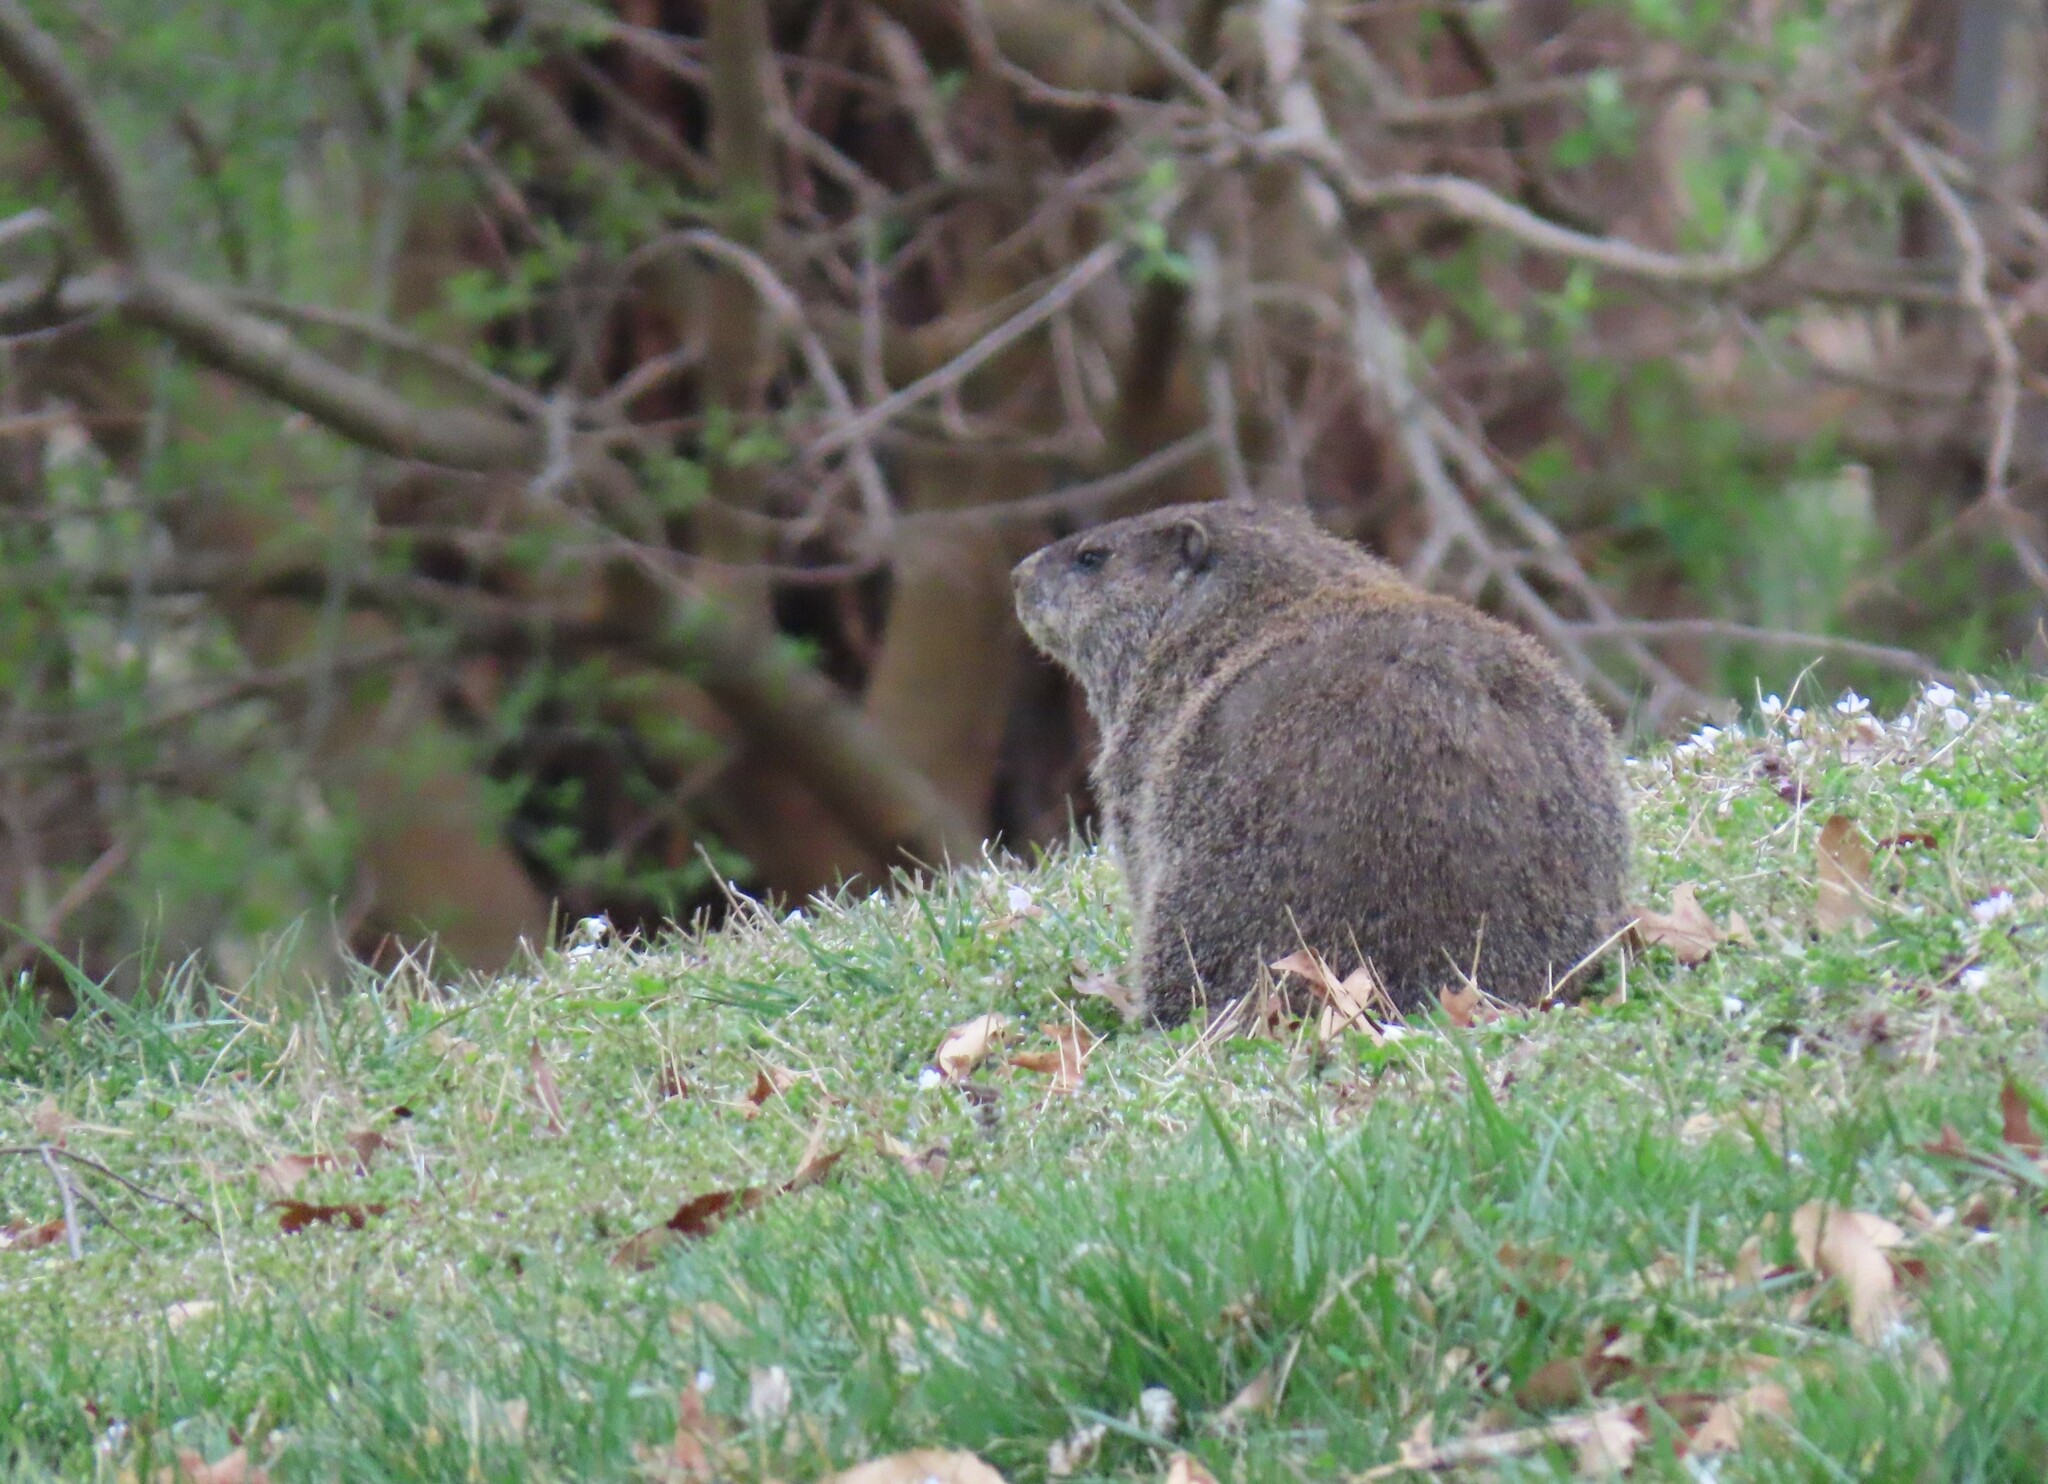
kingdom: Animalia
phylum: Chordata
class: Mammalia
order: Rodentia
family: Sciuridae
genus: Marmota
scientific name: Marmota monax
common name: Groundhog
